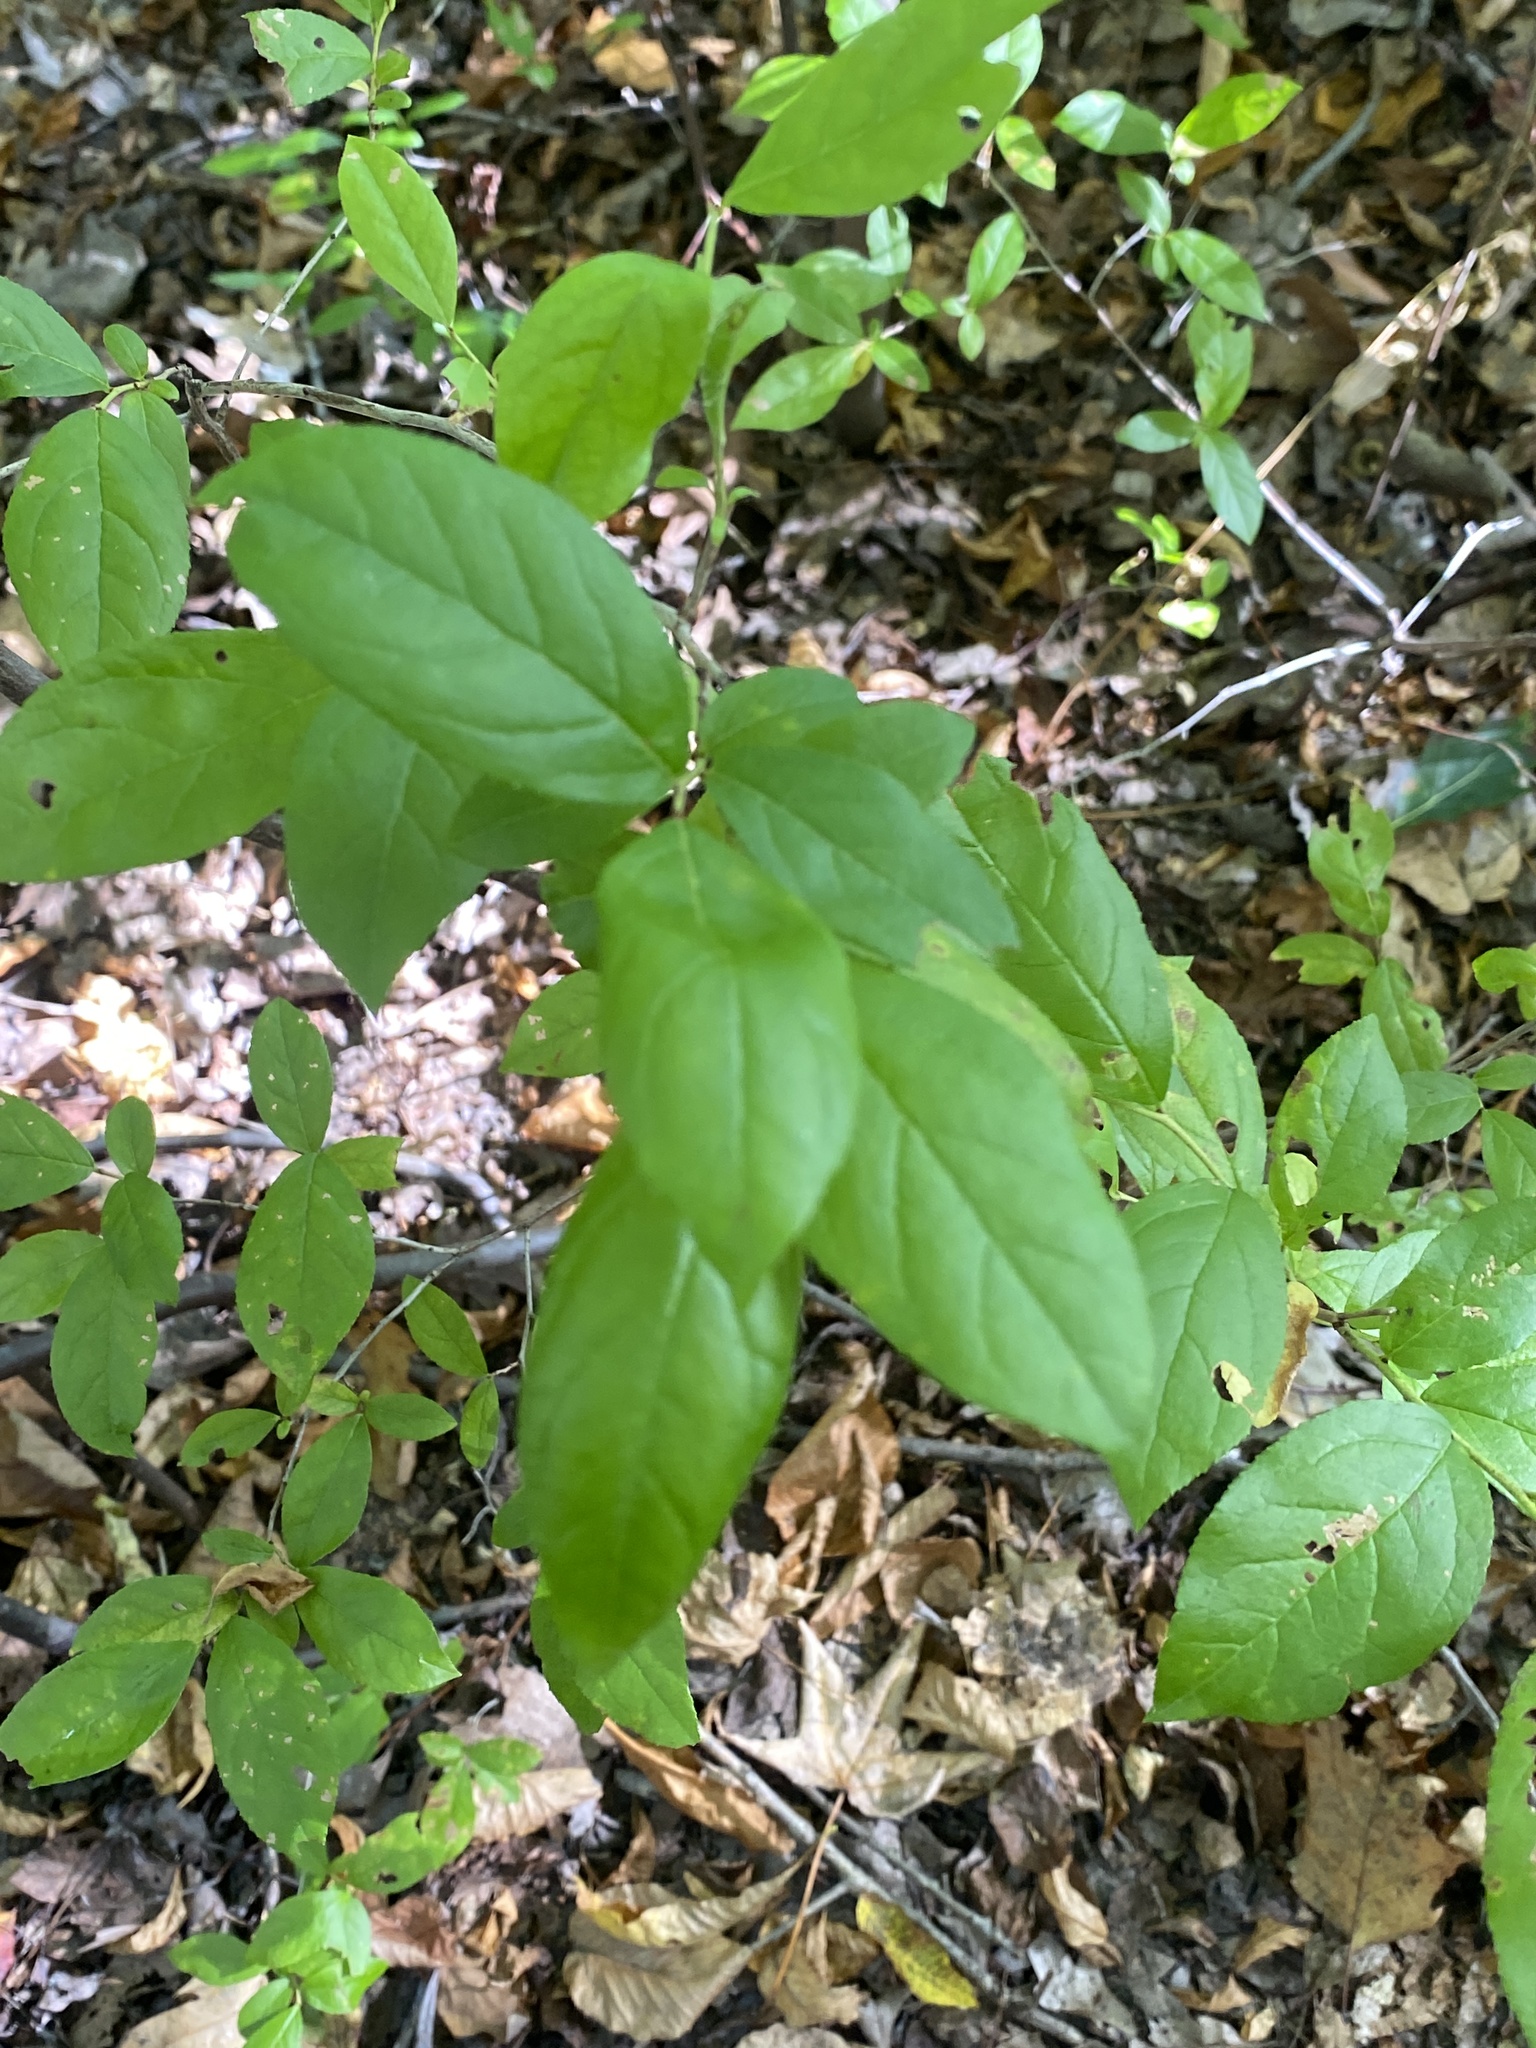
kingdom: Plantae
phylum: Tracheophyta
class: Magnoliopsida
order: Ericales
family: Ericaceae
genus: Vaccinium
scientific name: Vaccinium stamineum
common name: Deerberry
